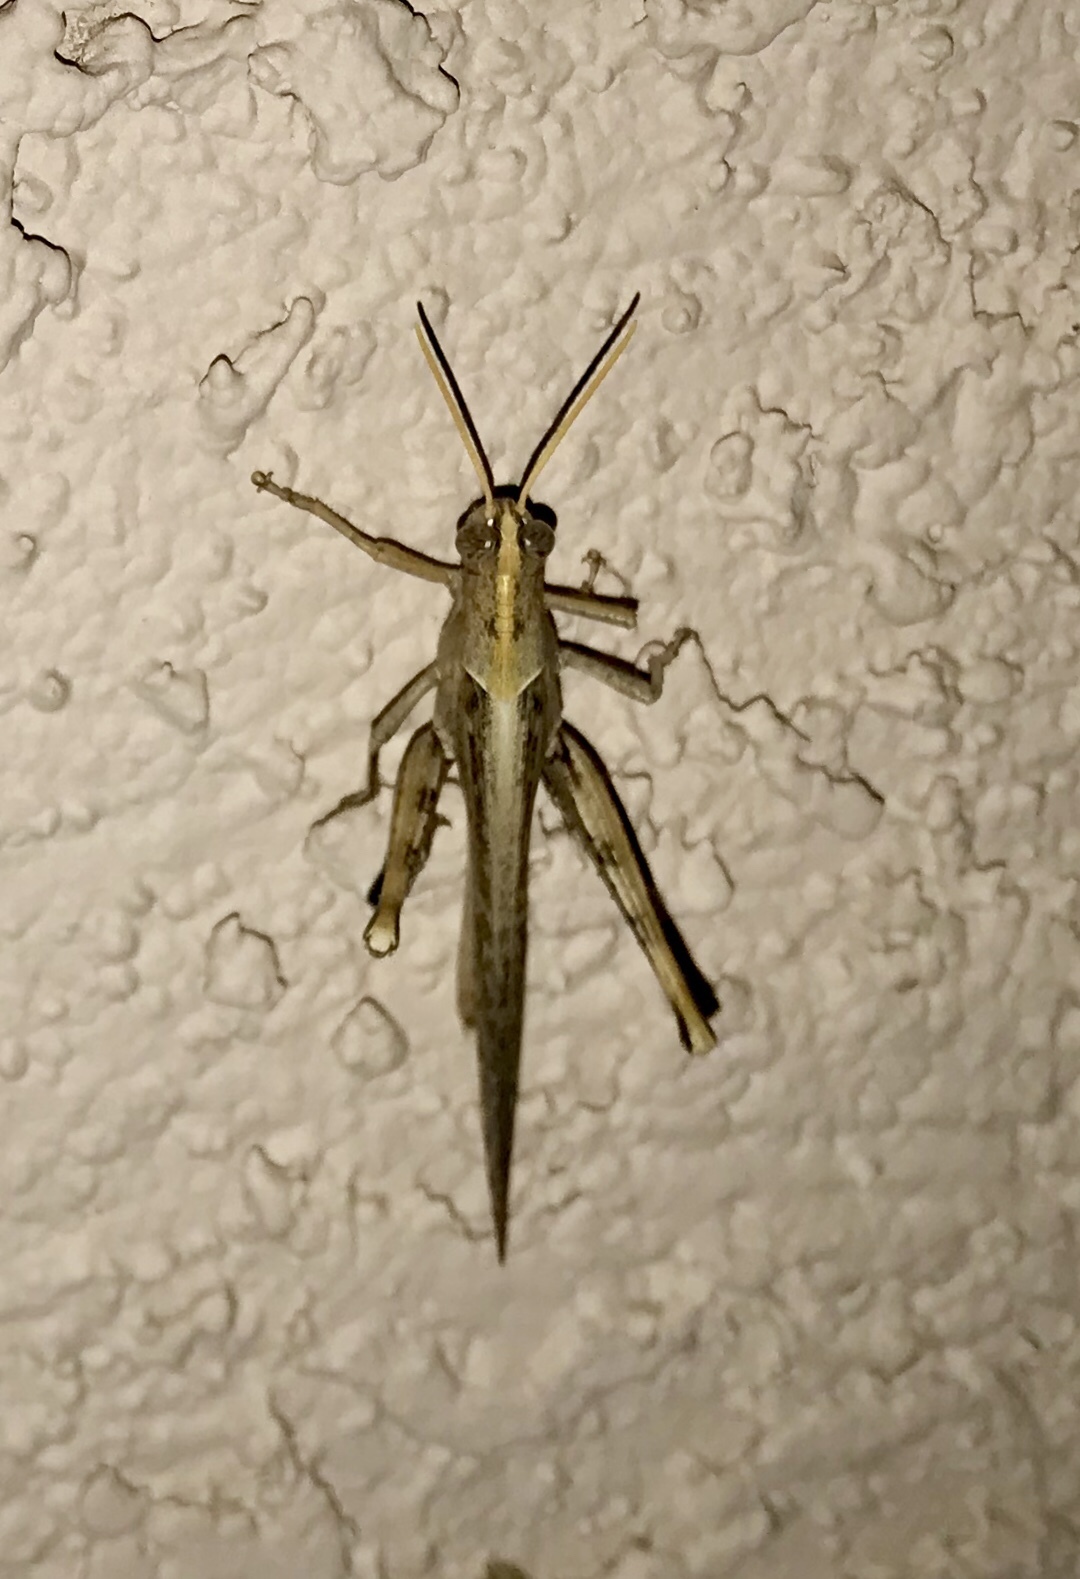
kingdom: Animalia
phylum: Arthropoda
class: Insecta
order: Orthoptera
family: Acrididae
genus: Schistocerca
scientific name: Schistocerca nitens
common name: Vagrant grasshopper
